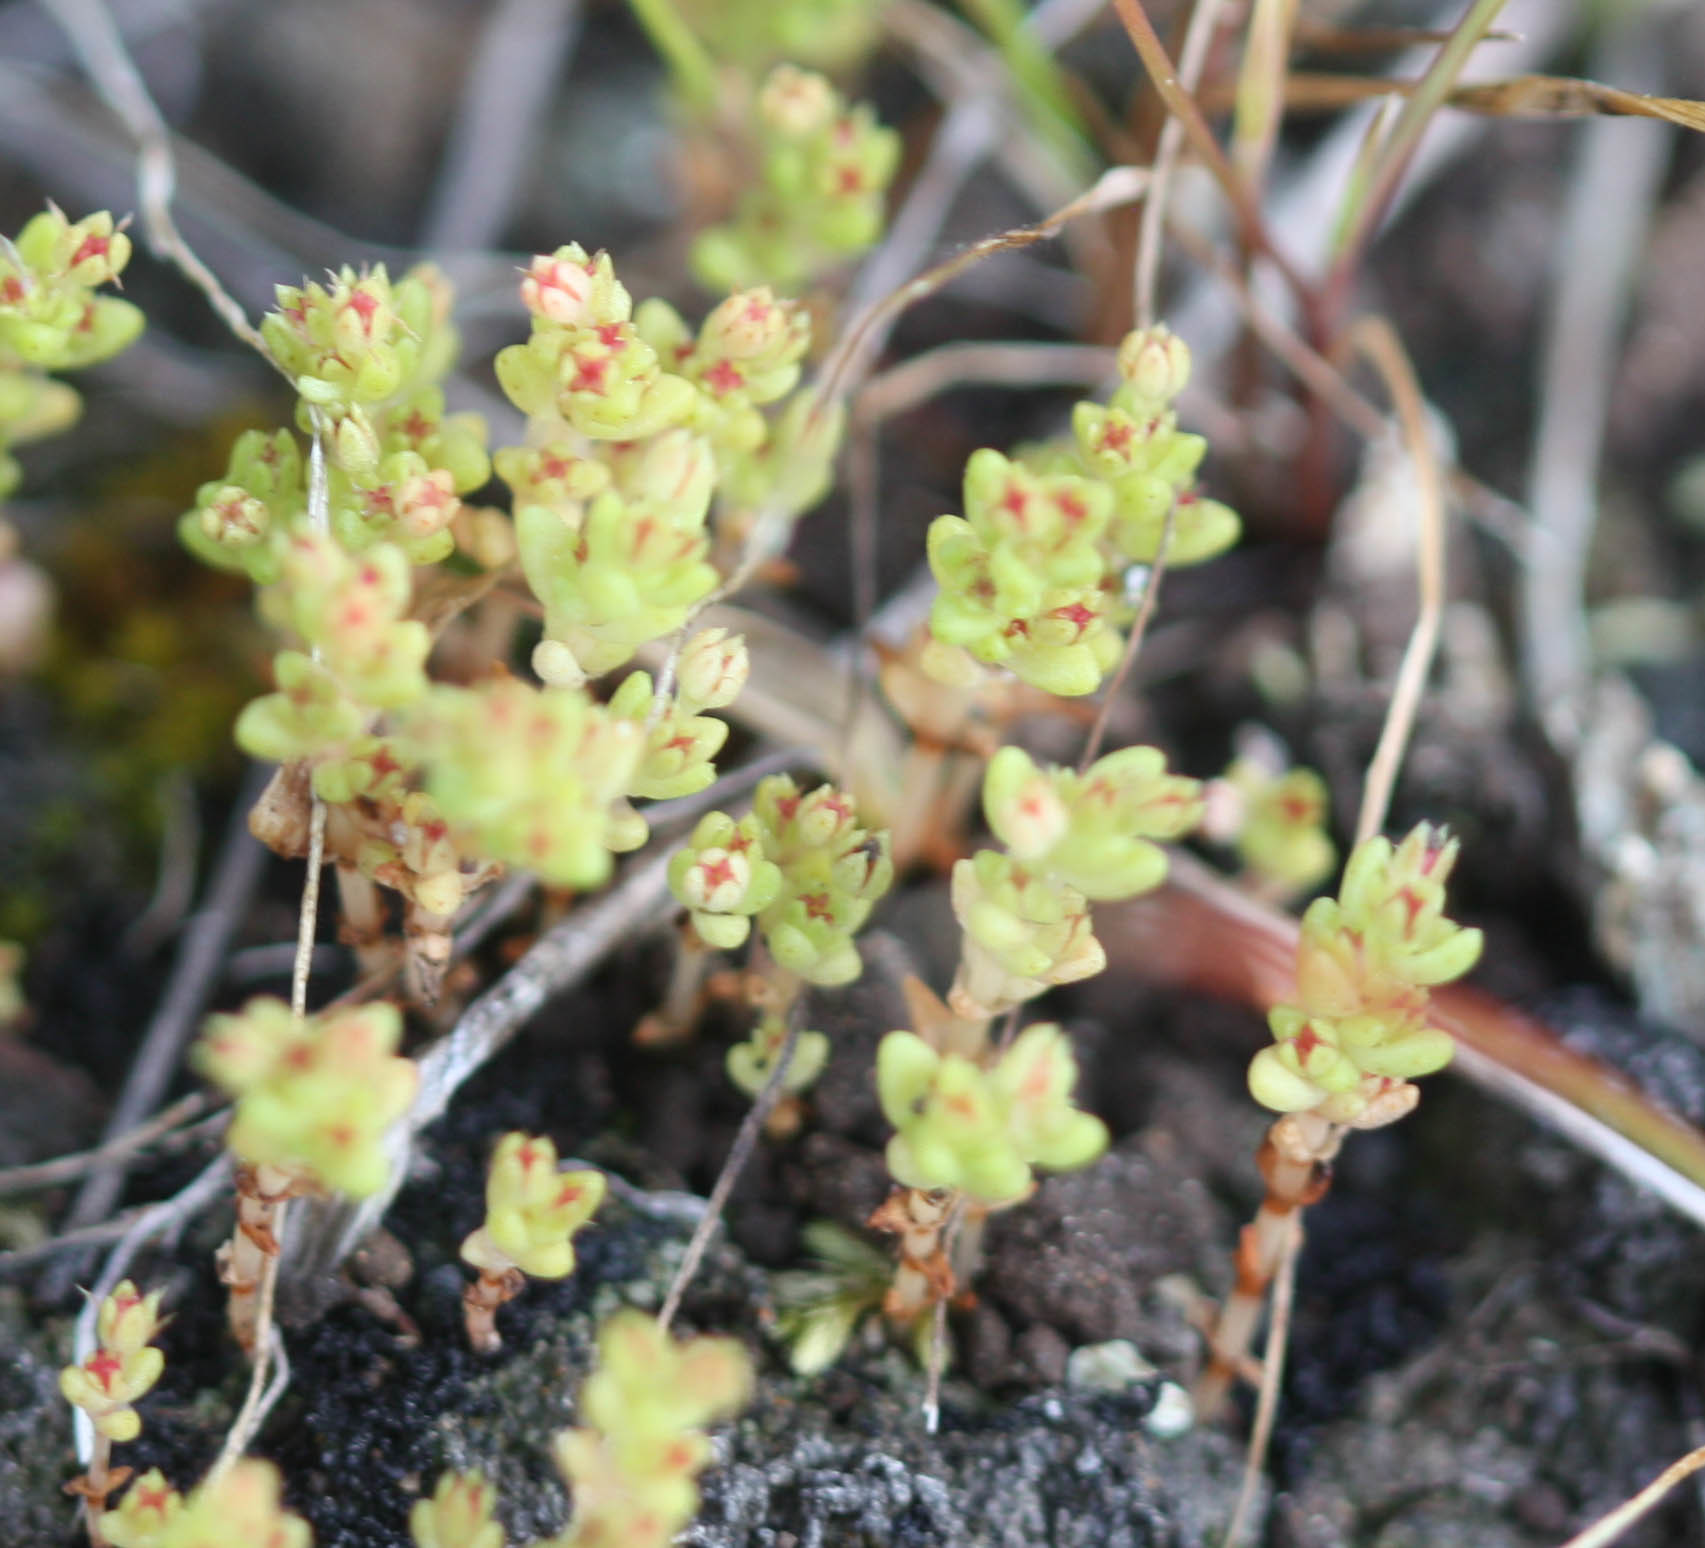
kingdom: Plantae
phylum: Tracheophyta
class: Magnoliopsida
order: Saxifragales
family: Crassulaceae
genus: Crassula
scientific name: Crassula connata
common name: Erect pygmyweed
